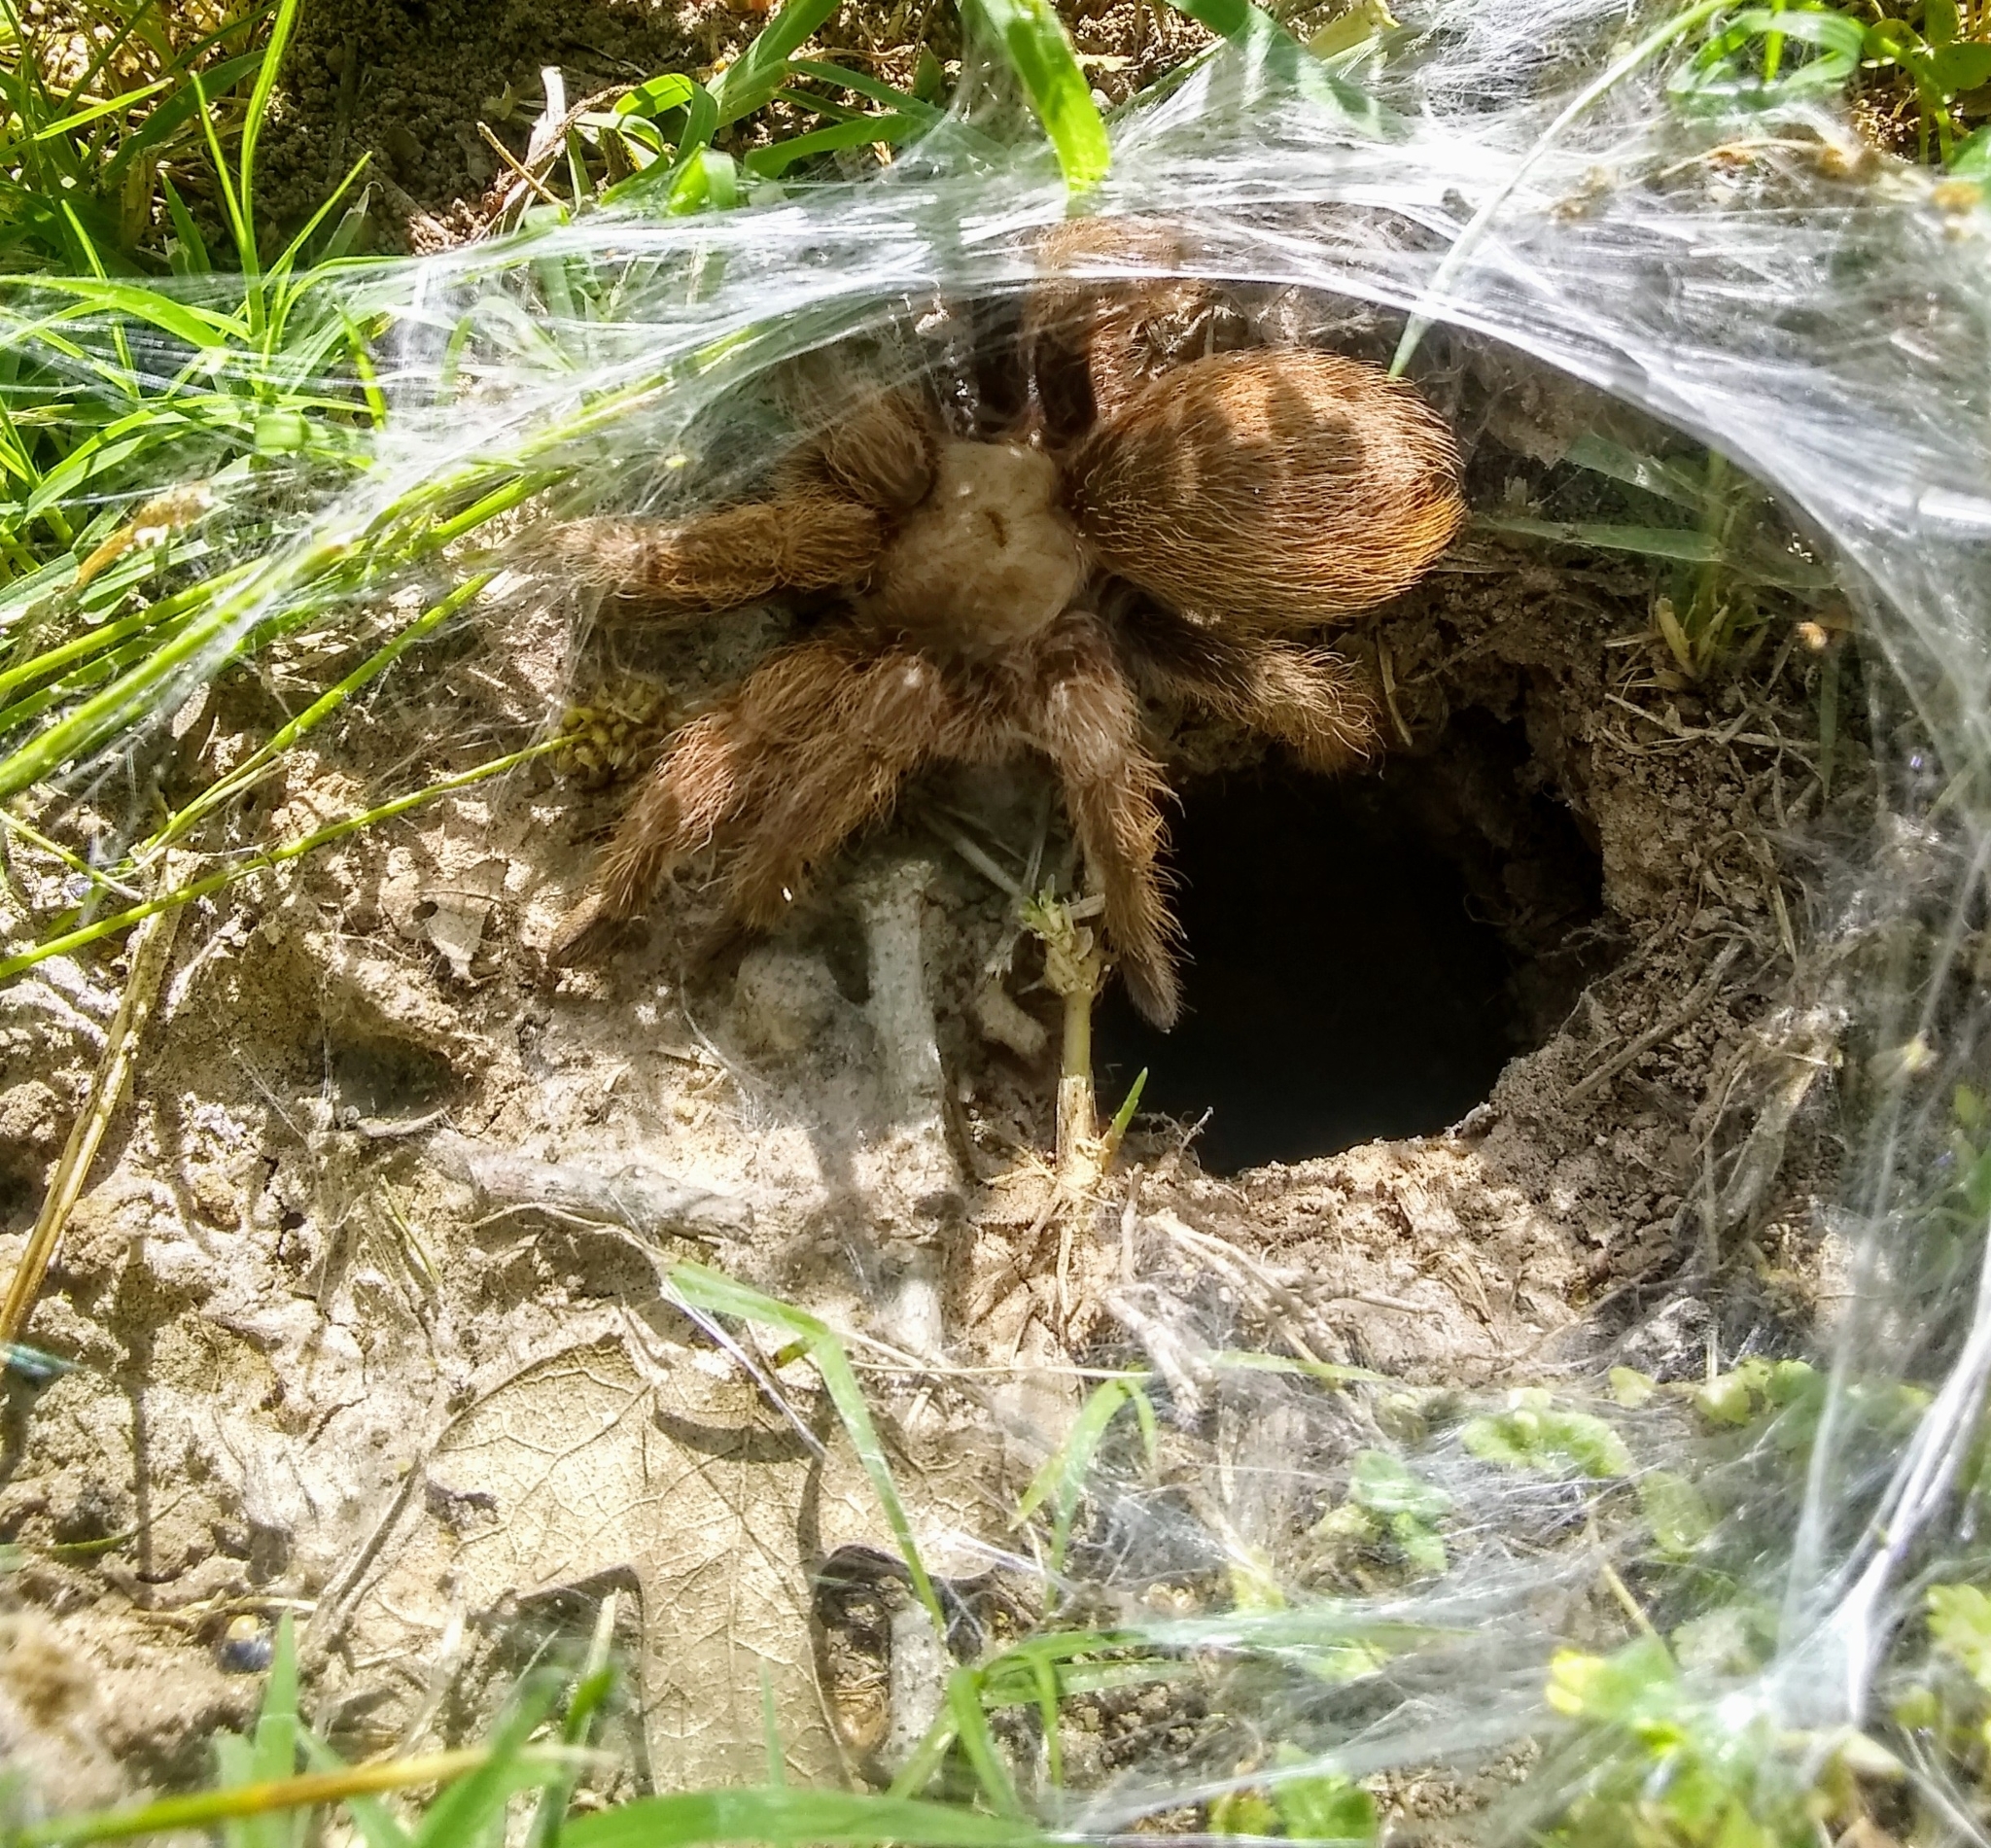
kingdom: Animalia
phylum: Arthropoda
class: Arachnida
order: Araneae
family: Theraphosidae
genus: Aphonopelma
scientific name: Aphonopelma hentzi
